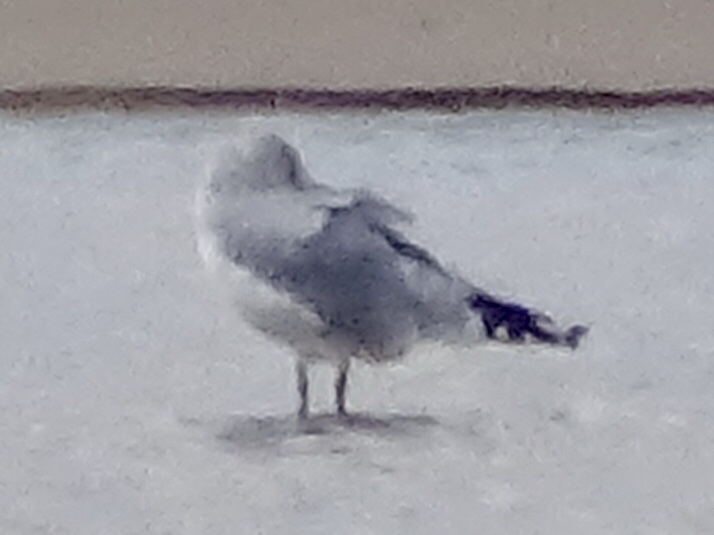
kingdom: Animalia
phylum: Chordata
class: Aves
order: Charadriiformes
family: Laridae
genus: Larus
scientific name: Larus delawarensis
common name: Ring-billed gull
